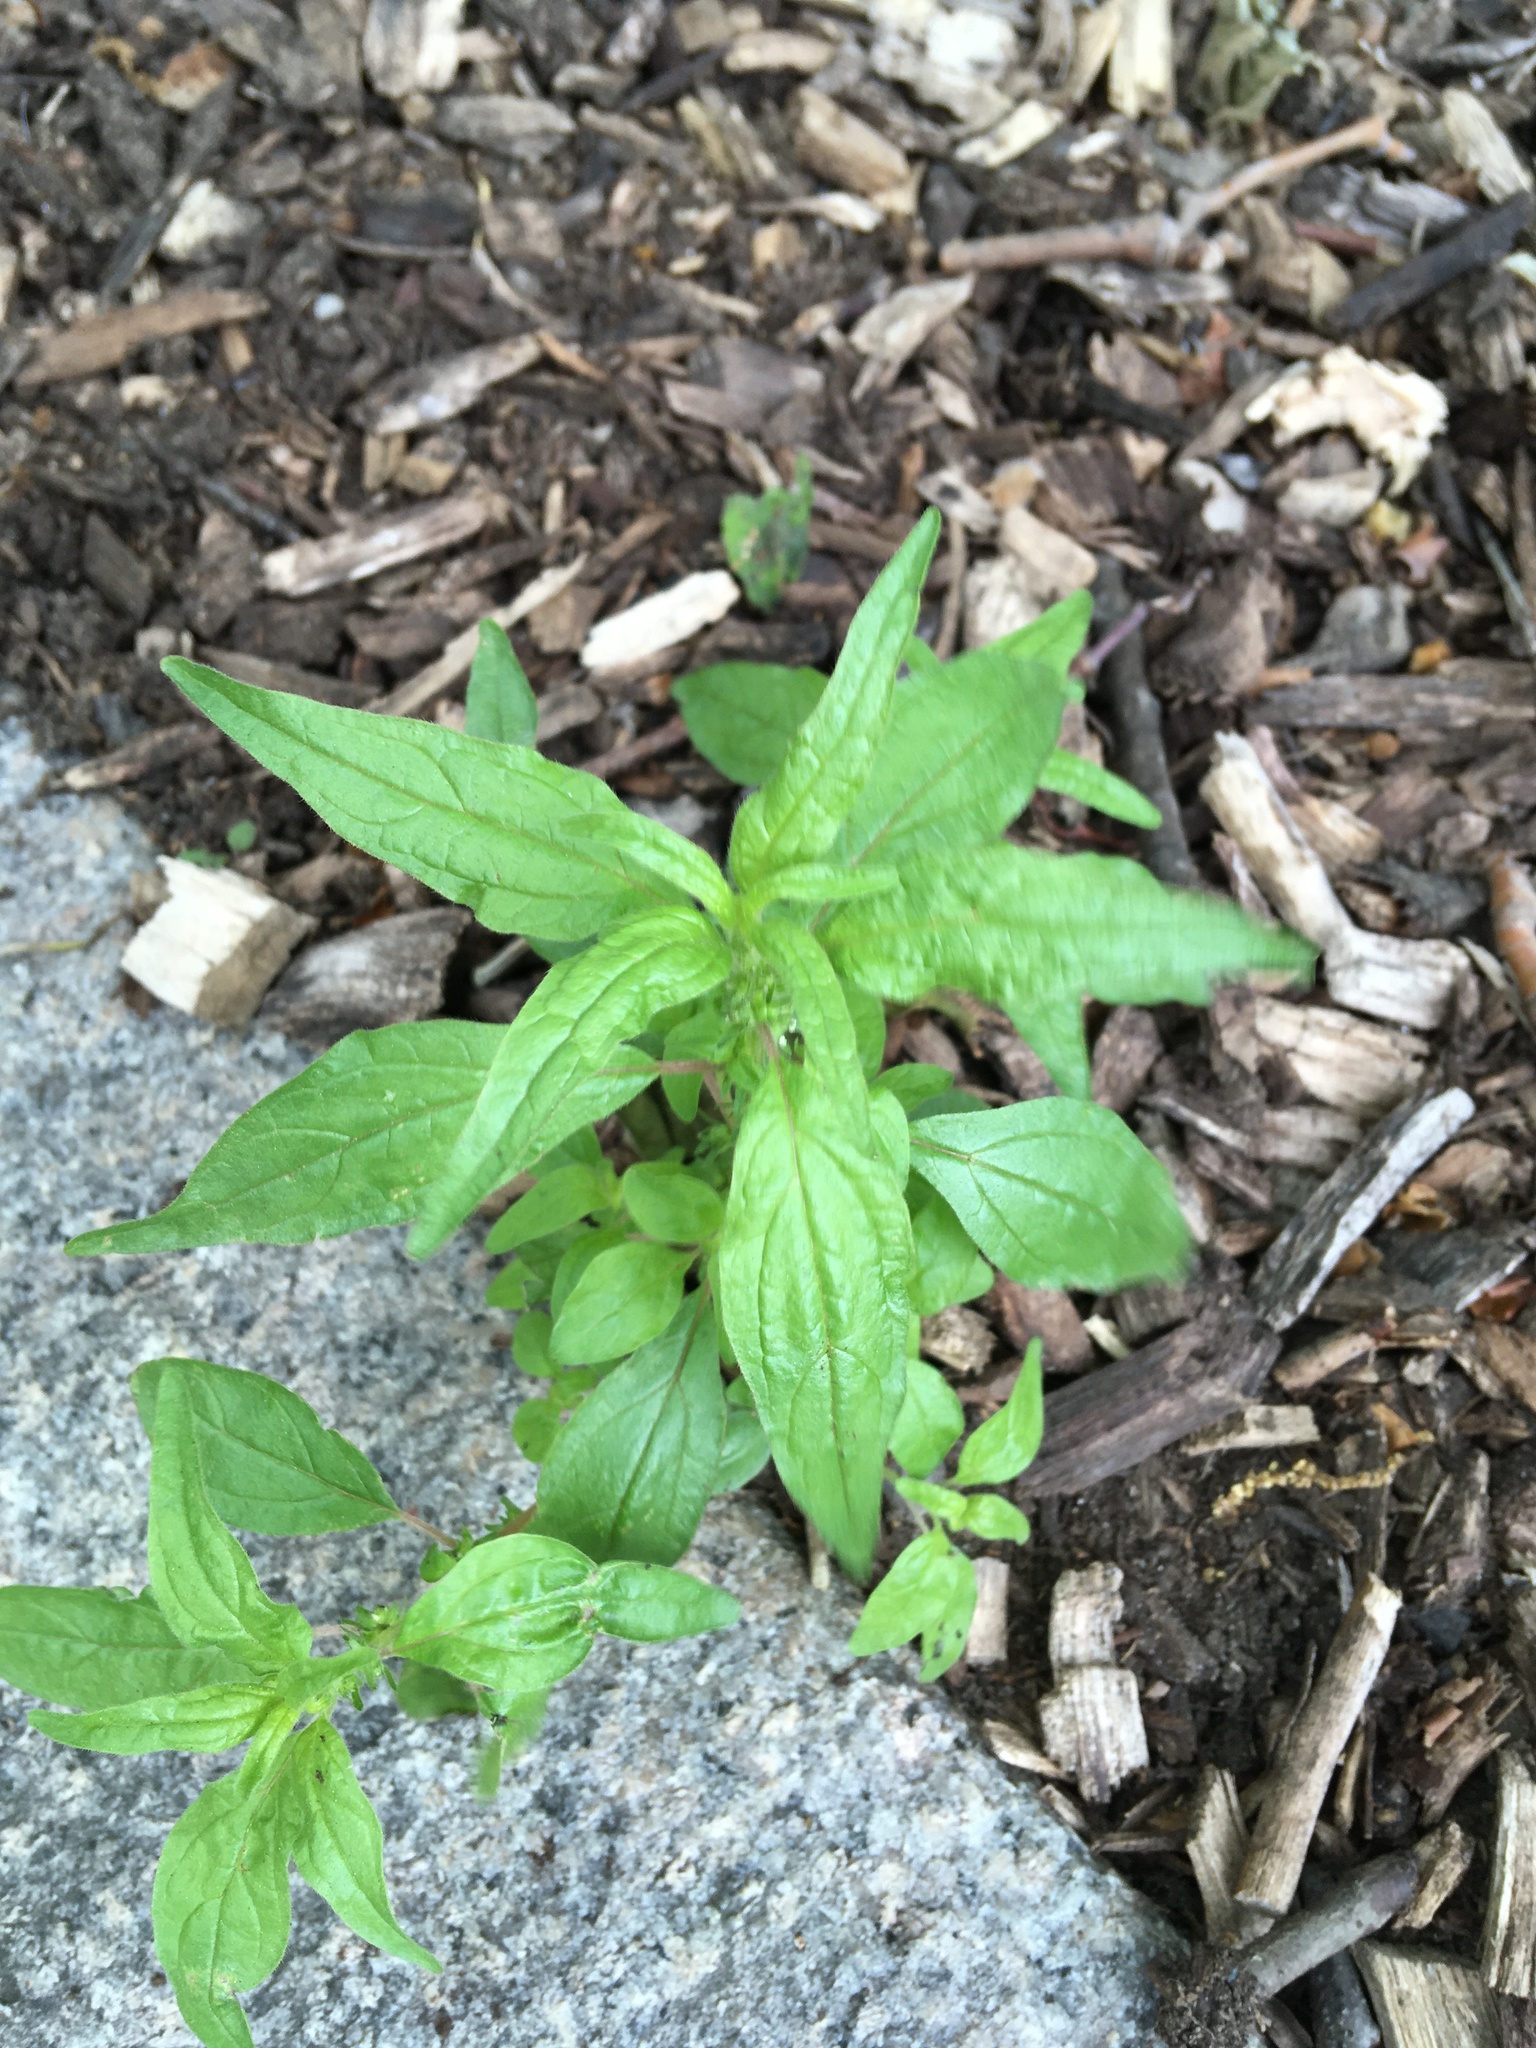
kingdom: Plantae
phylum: Tracheophyta
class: Magnoliopsida
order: Rosales
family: Urticaceae
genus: Parietaria
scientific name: Parietaria pensylvanica
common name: Pennsylvania pellitory
